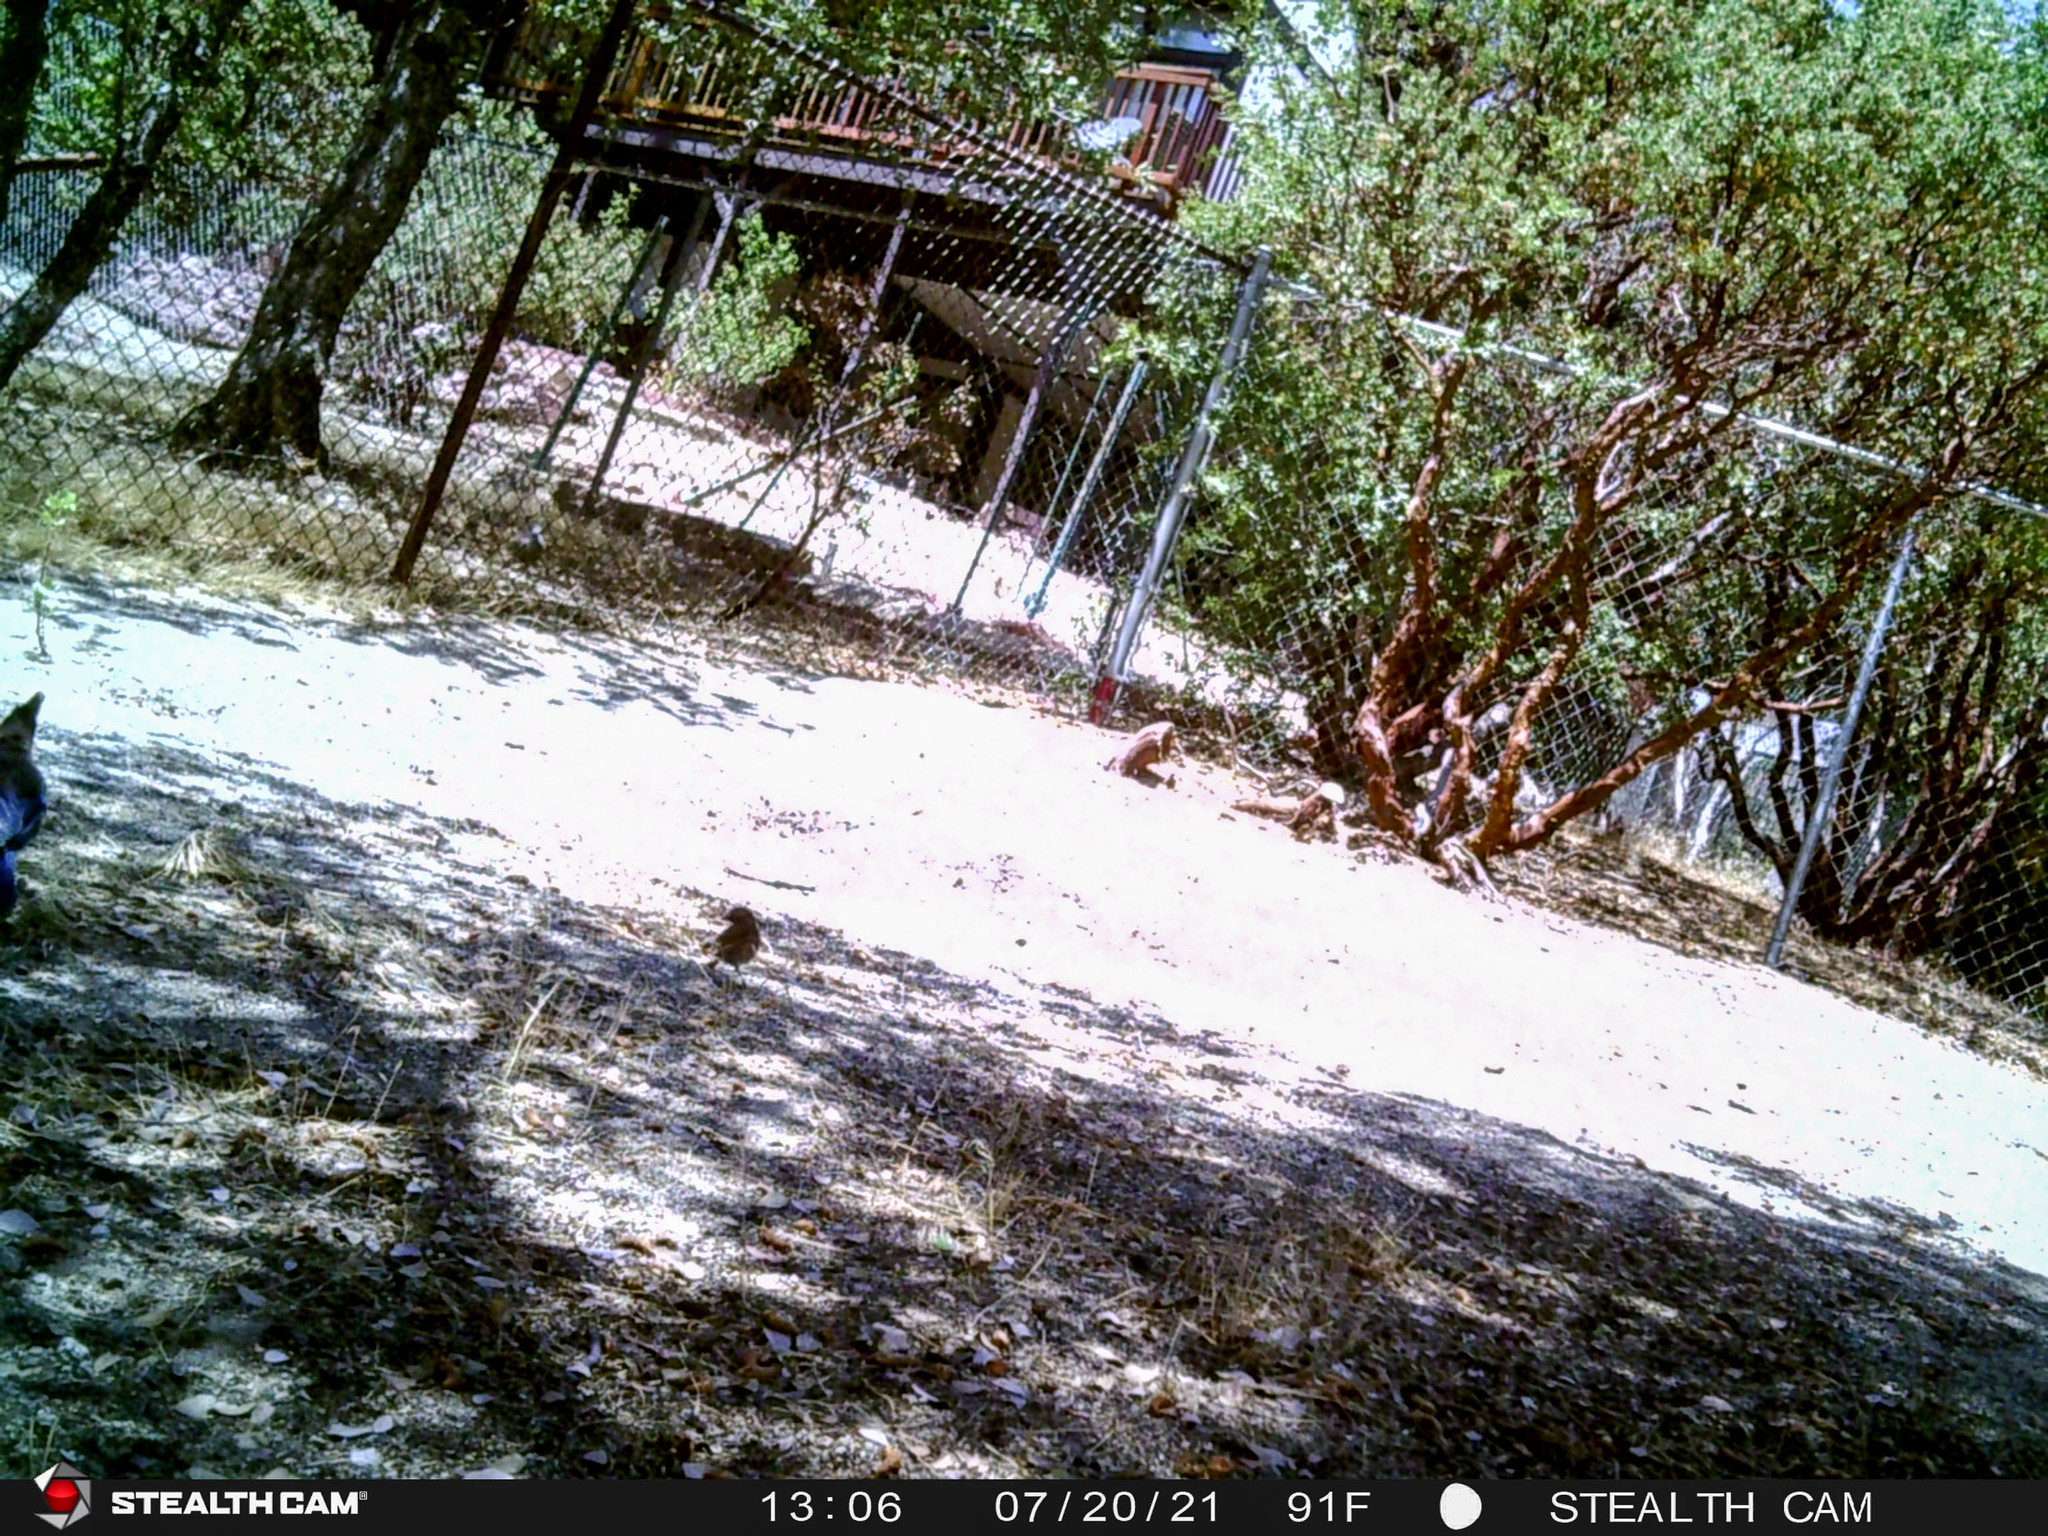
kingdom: Animalia
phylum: Chordata
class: Aves
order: Passeriformes
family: Corvidae
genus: Cyanocitta
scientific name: Cyanocitta stelleri
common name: Steller's jay
